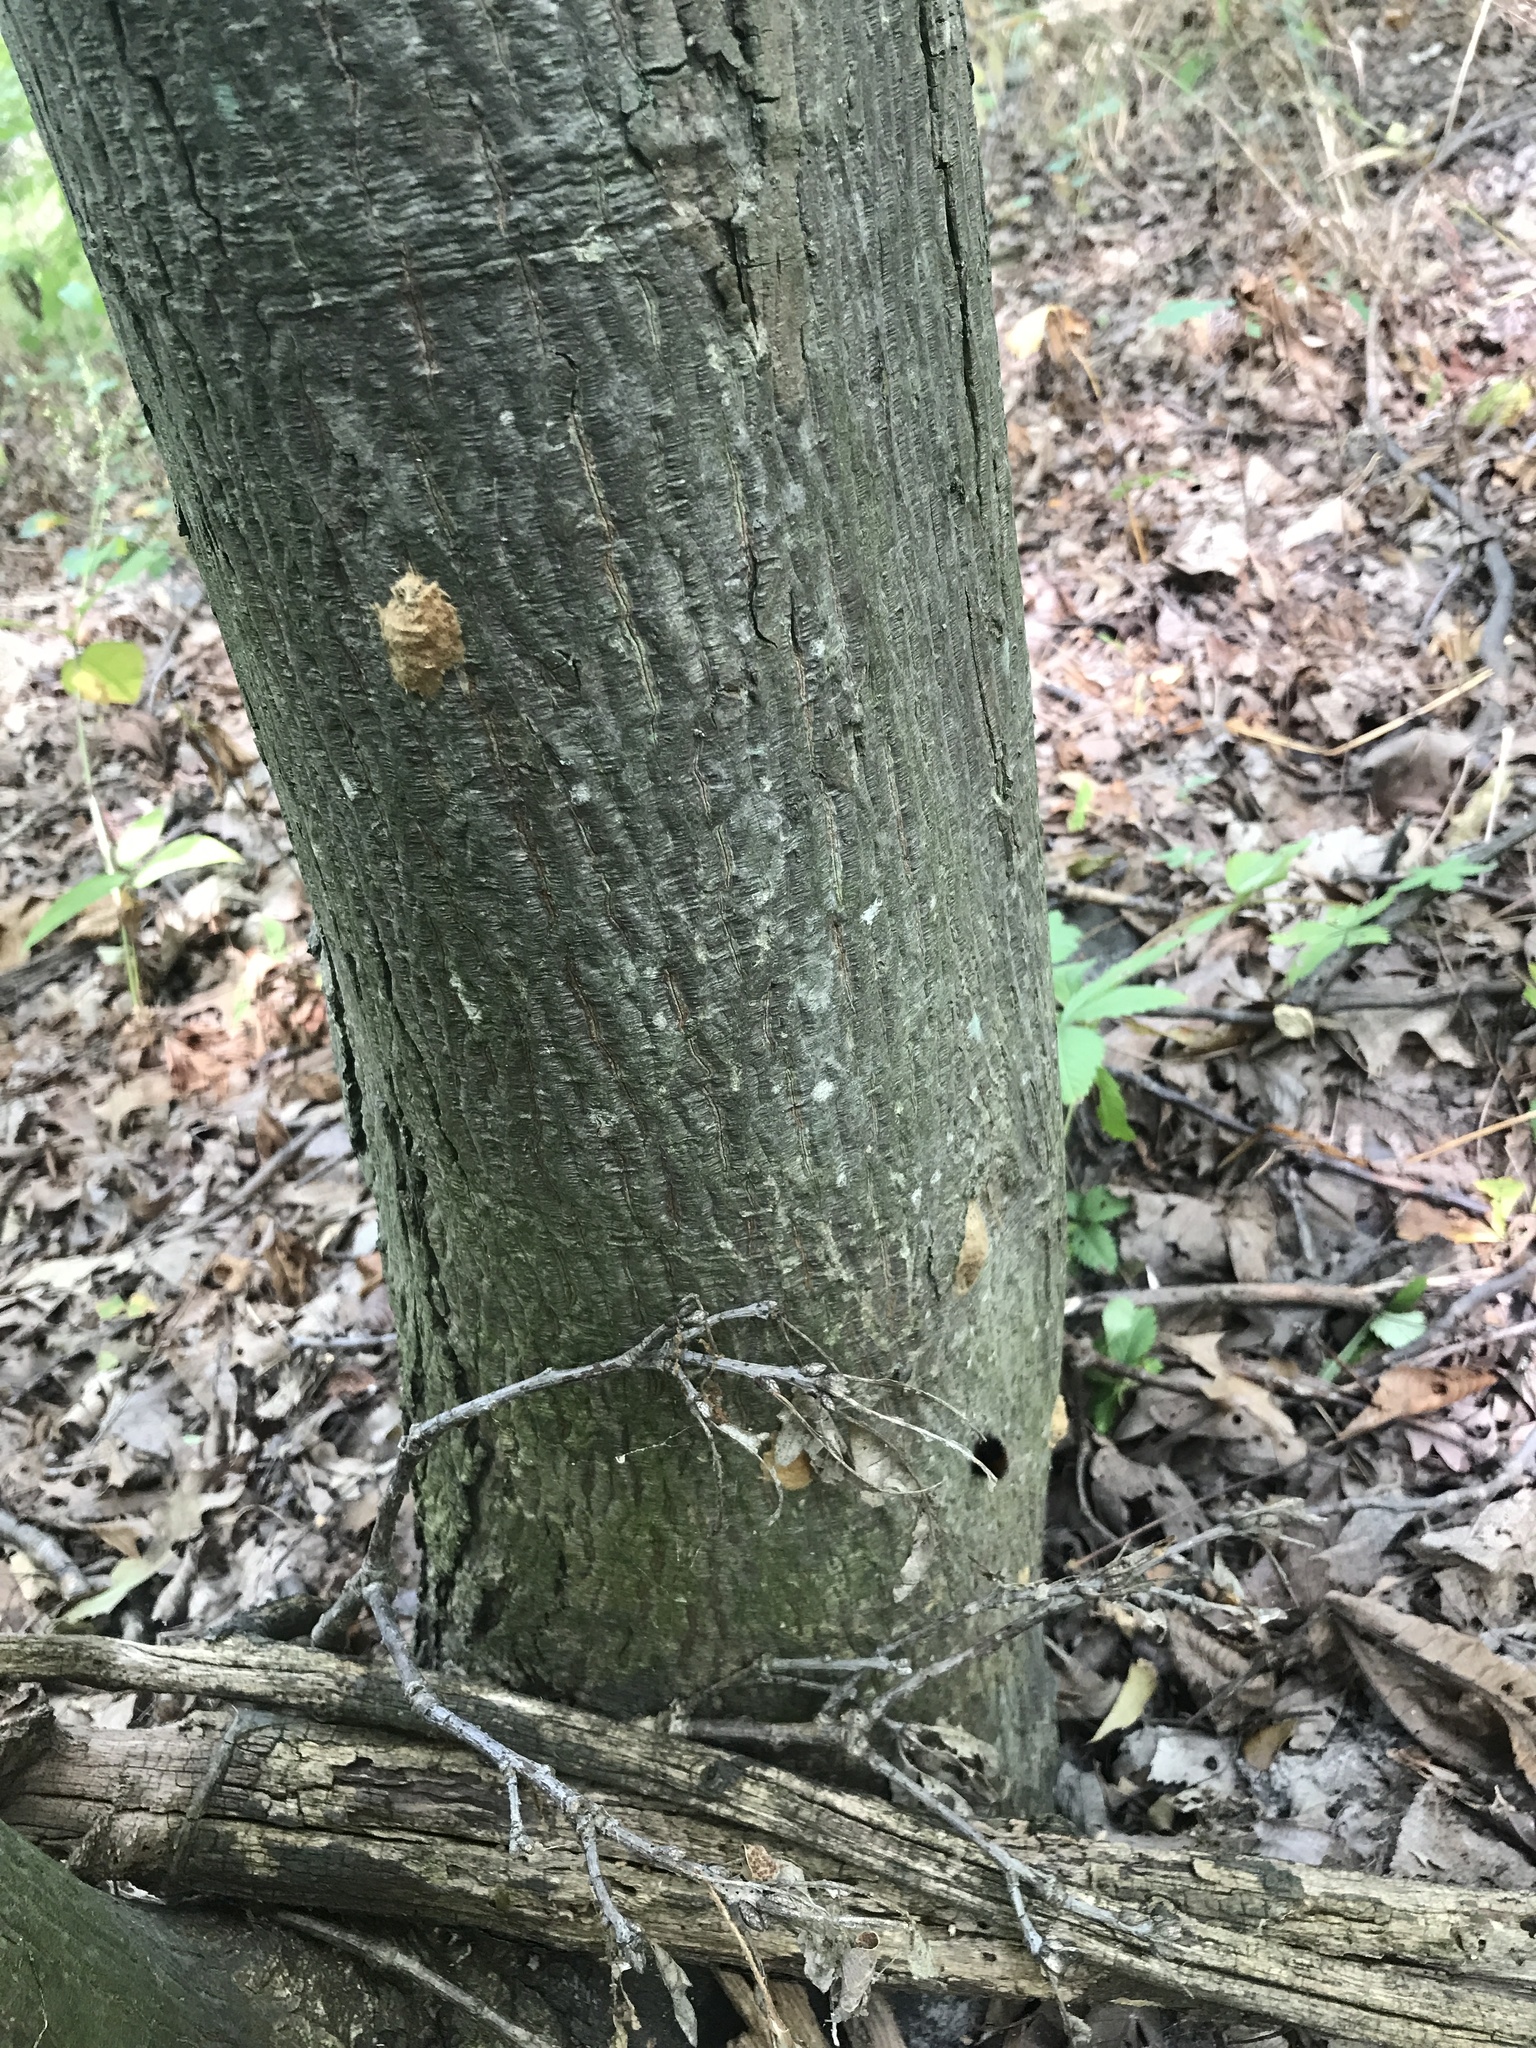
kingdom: Animalia
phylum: Arthropoda
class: Insecta
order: Lepidoptera
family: Erebidae
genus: Lymantria
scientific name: Lymantria dispar
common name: Gypsy moth
